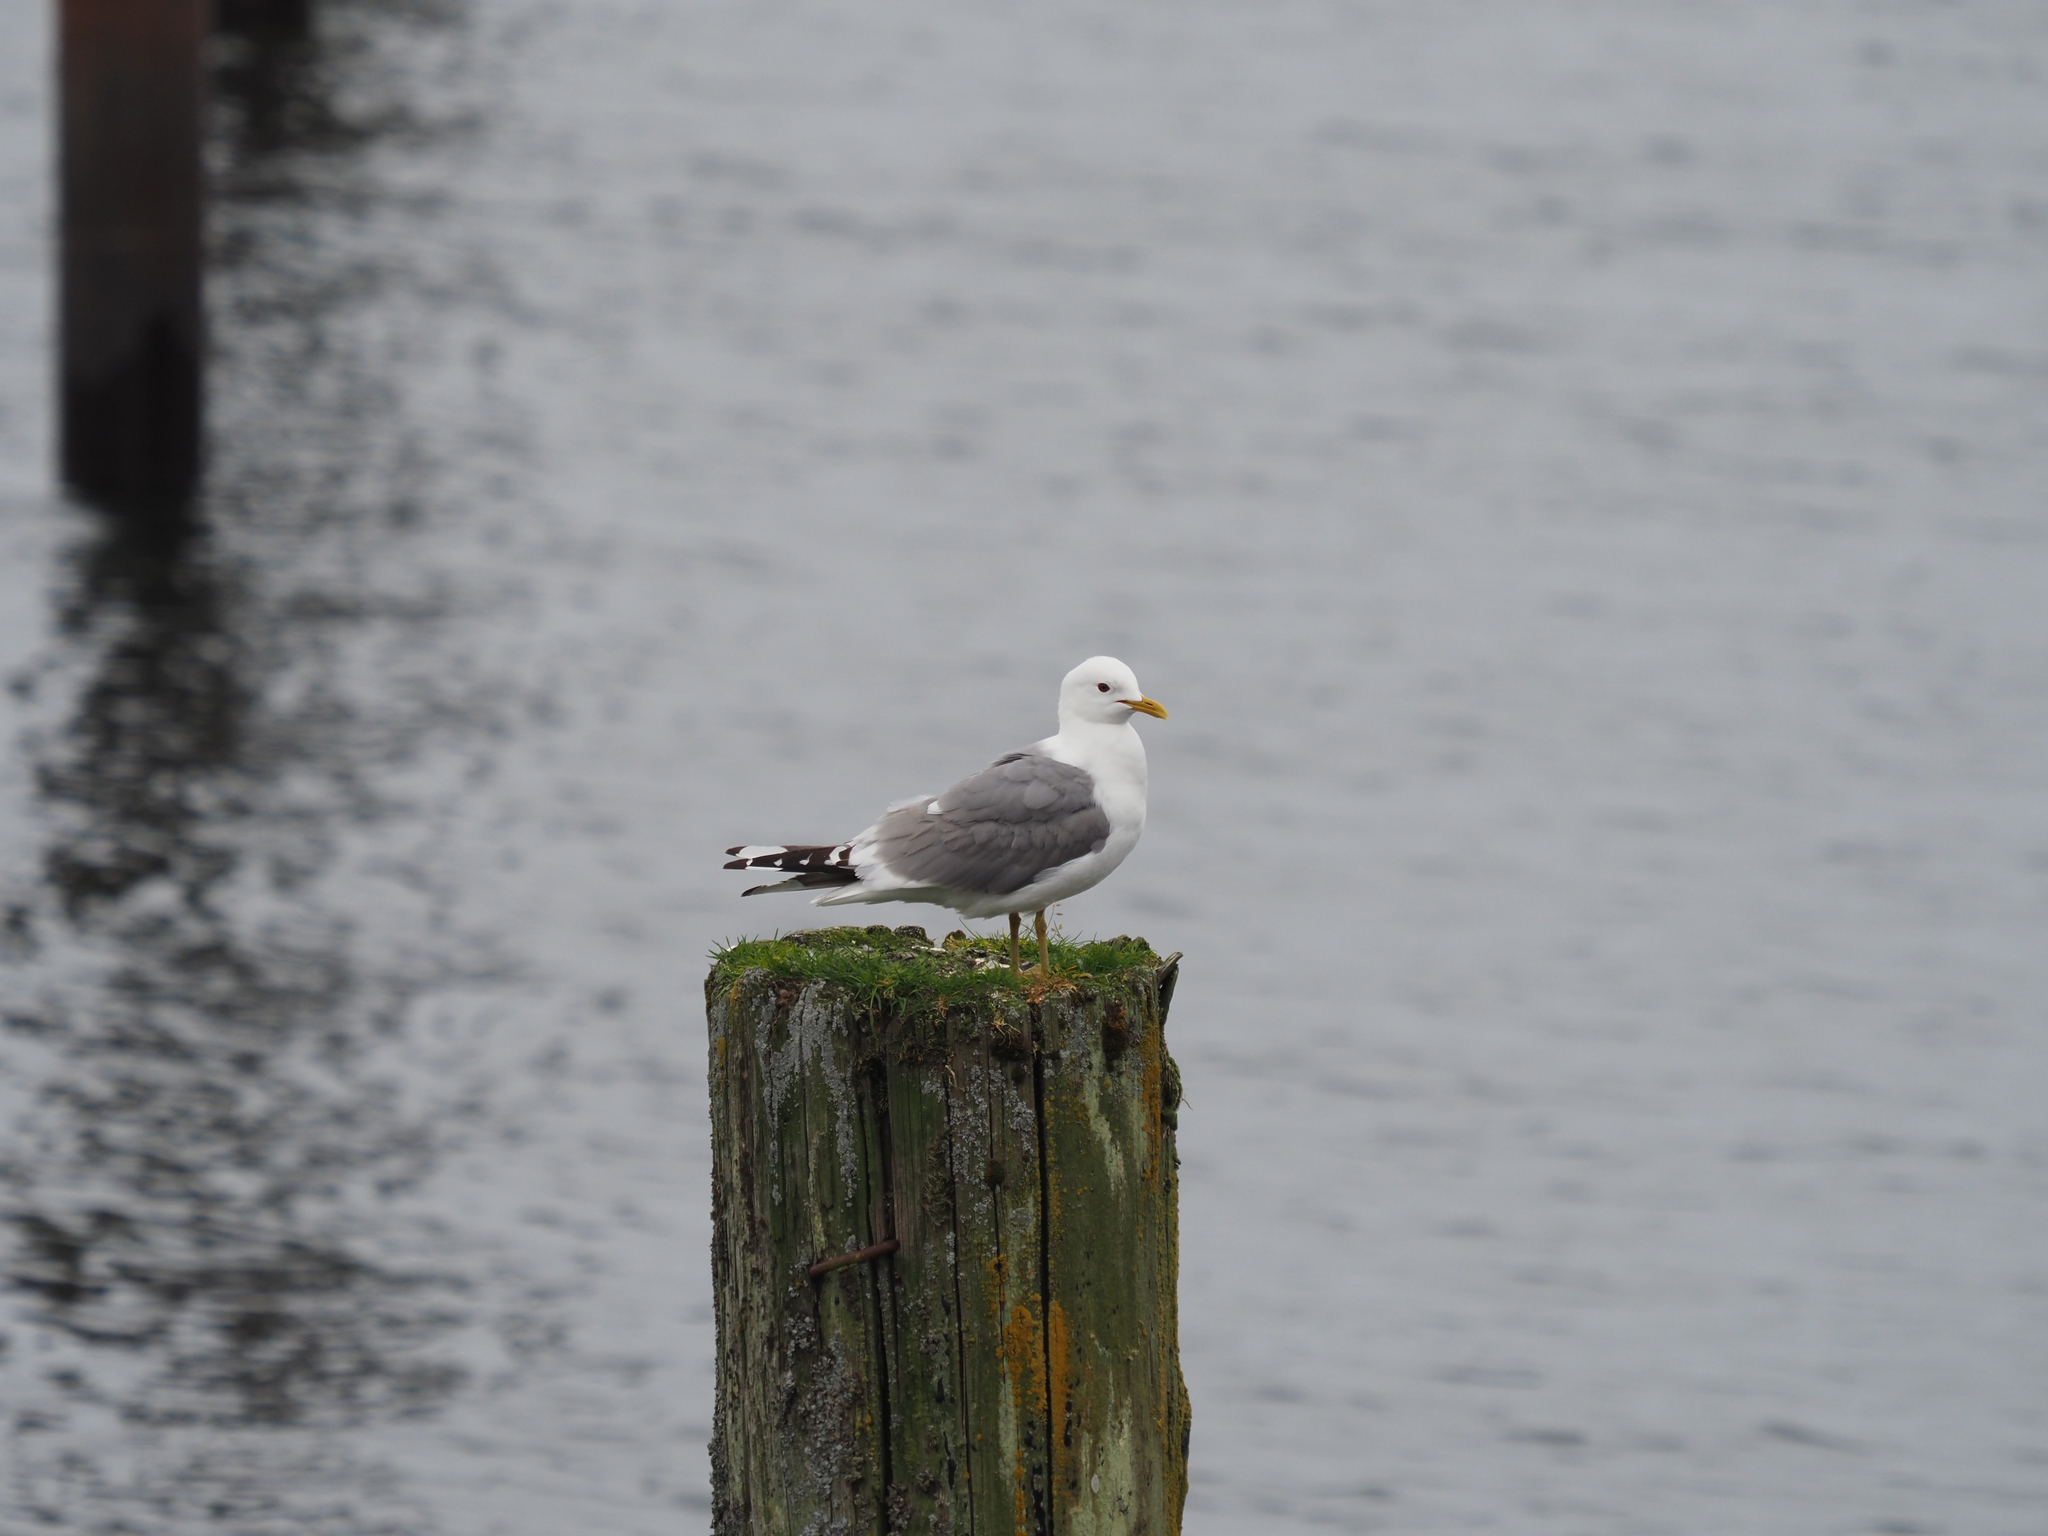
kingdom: Animalia
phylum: Chordata
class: Aves
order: Charadriiformes
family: Laridae
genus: Larus
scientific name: Larus brachyrhynchus
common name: Short-billed gull
